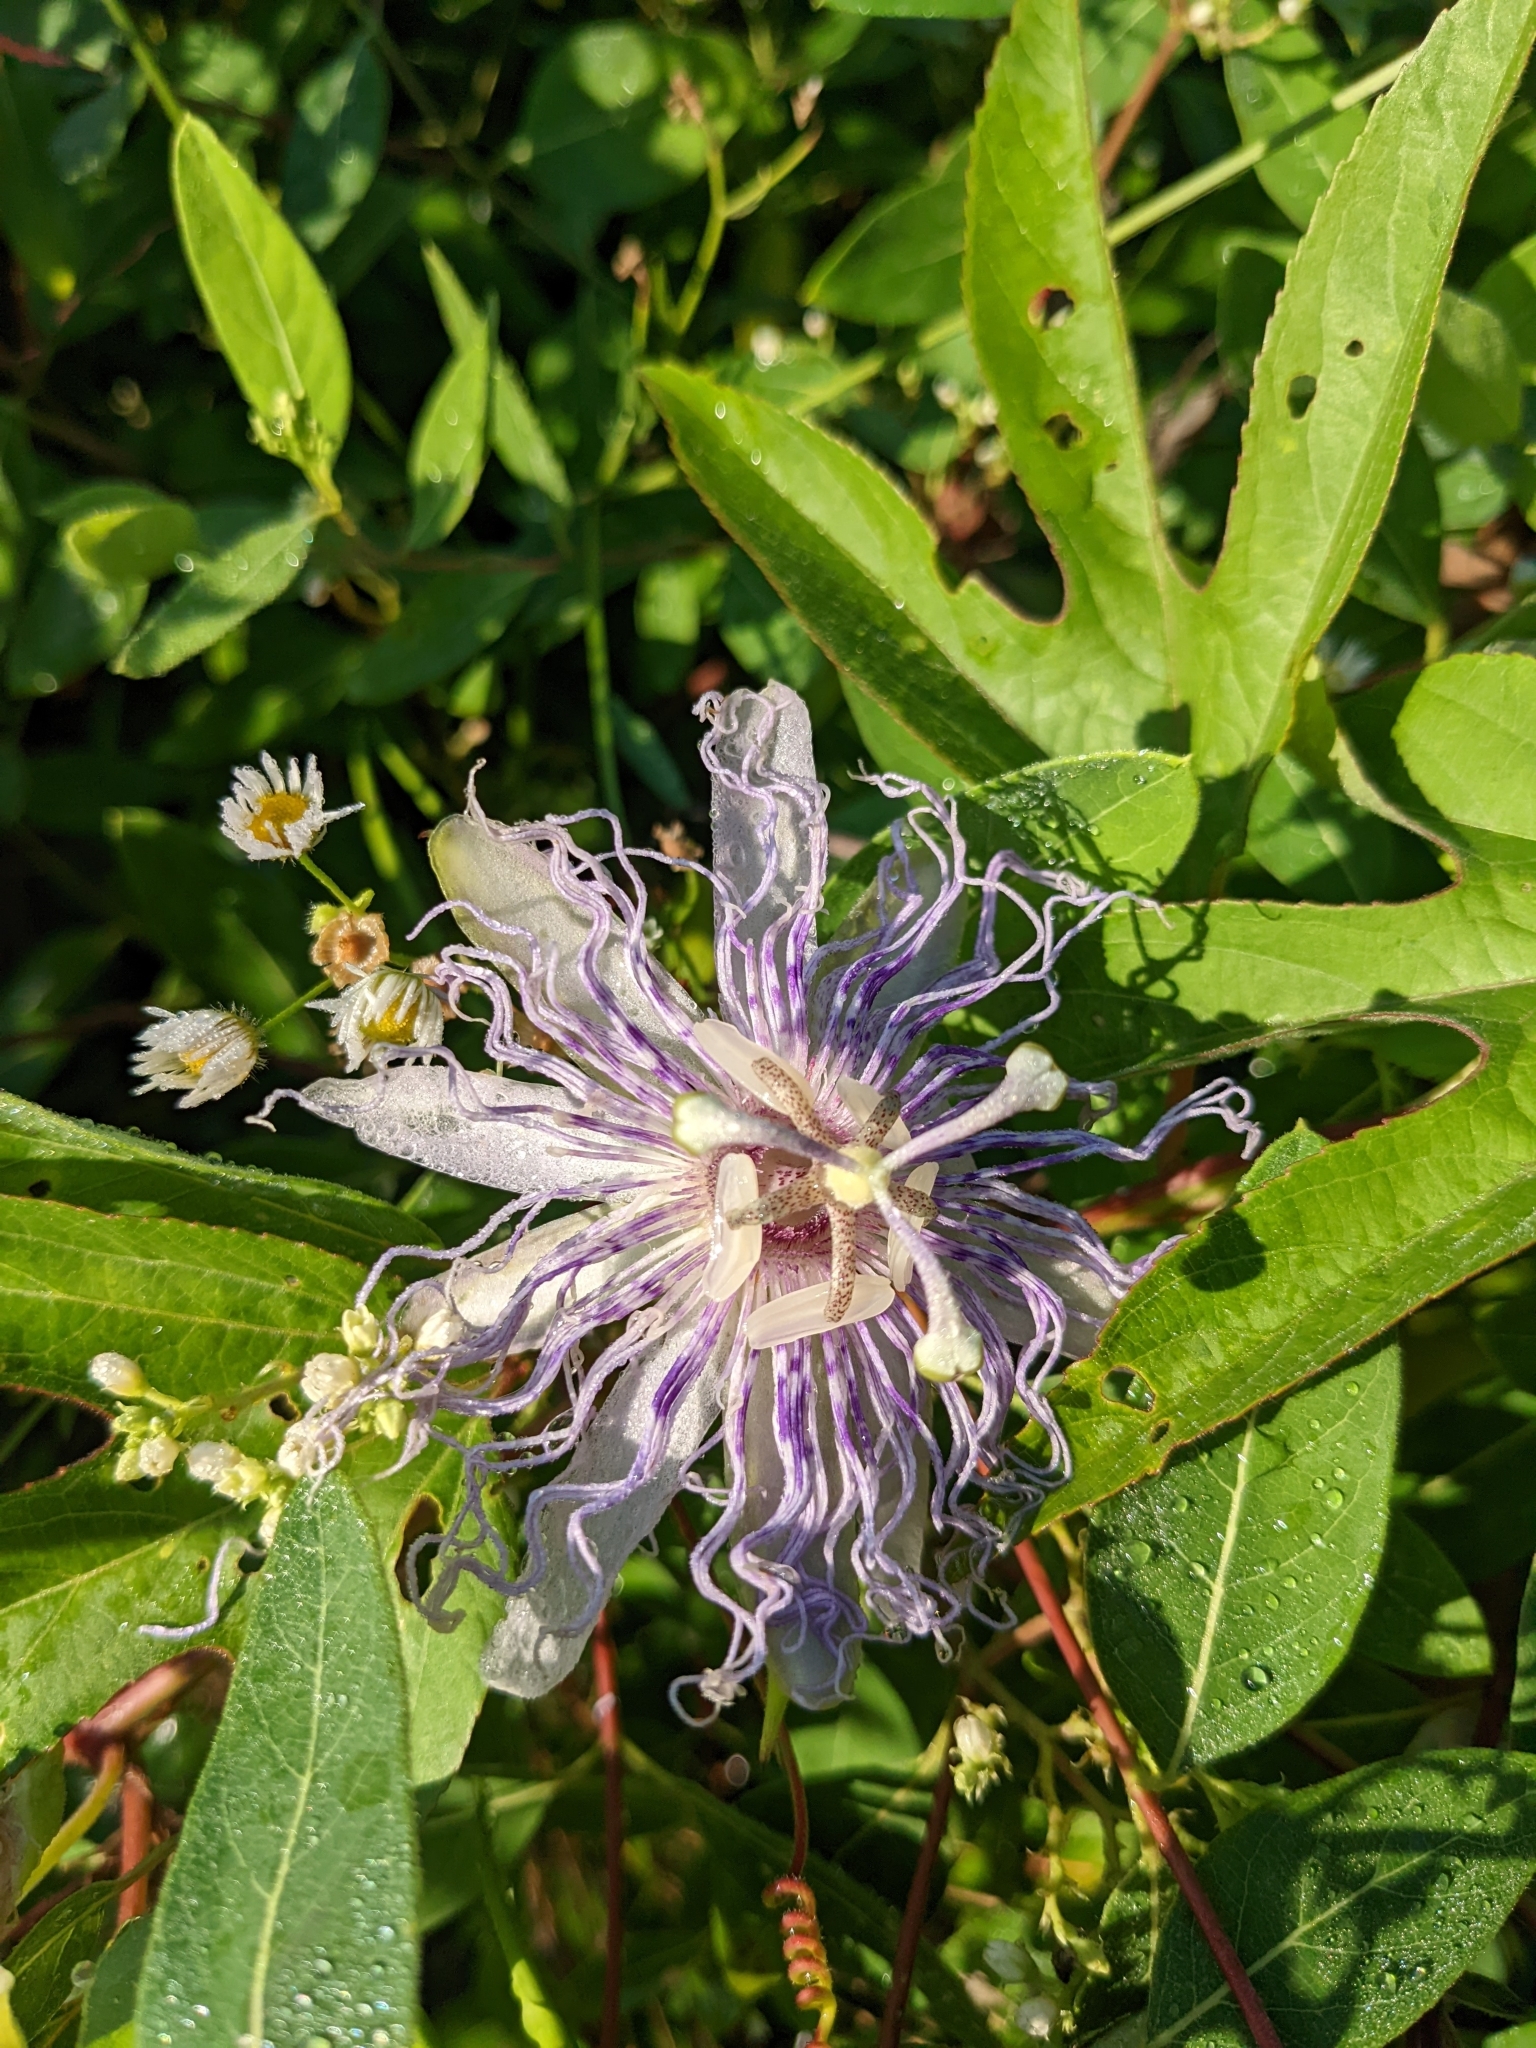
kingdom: Plantae
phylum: Tracheophyta
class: Magnoliopsida
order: Malpighiales
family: Passifloraceae
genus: Passiflora
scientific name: Passiflora incarnata
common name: Apricot-vine
